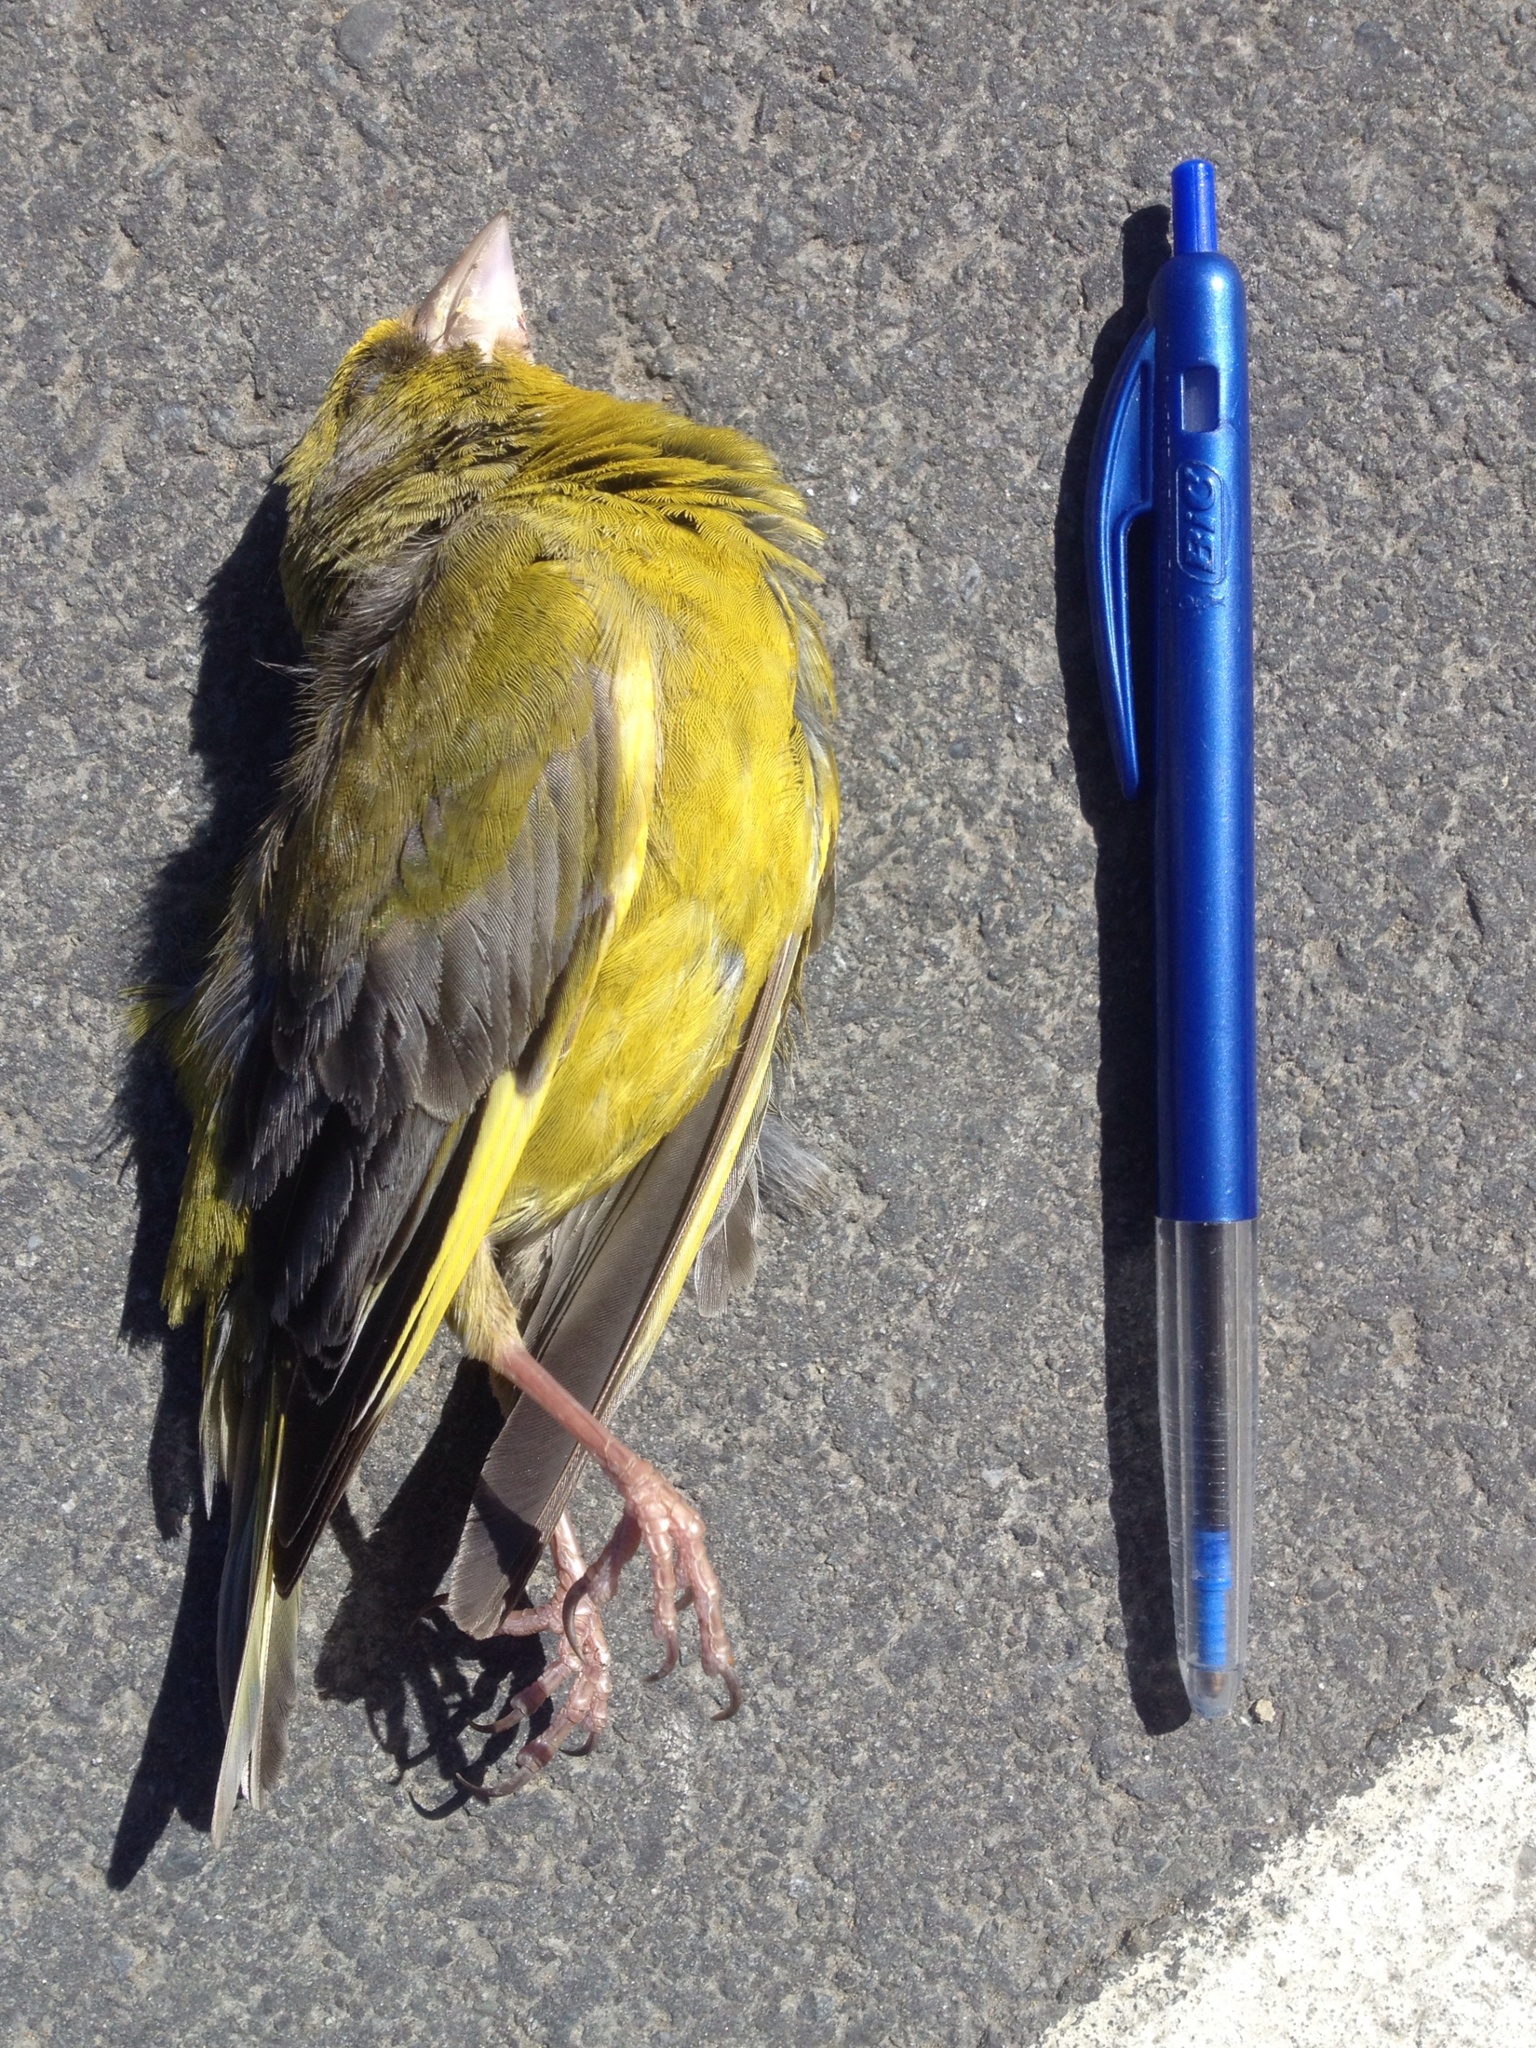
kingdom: Plantae
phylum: Tracheophyta
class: Liliopsida
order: Poales
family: Poaceae
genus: Chloris
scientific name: Chloris chloris
